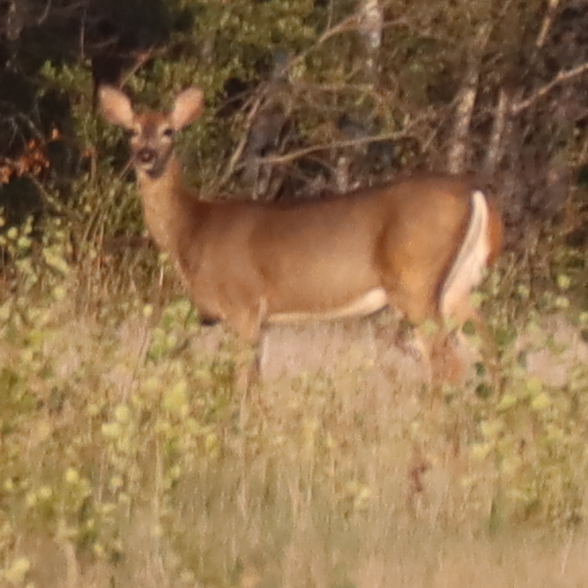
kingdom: Animalia
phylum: Chordata
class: Mammalia
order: Artiodactyla
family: Cervidae
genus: Odocoileus
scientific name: Odocoileus virginianus
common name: White-tailed deer
